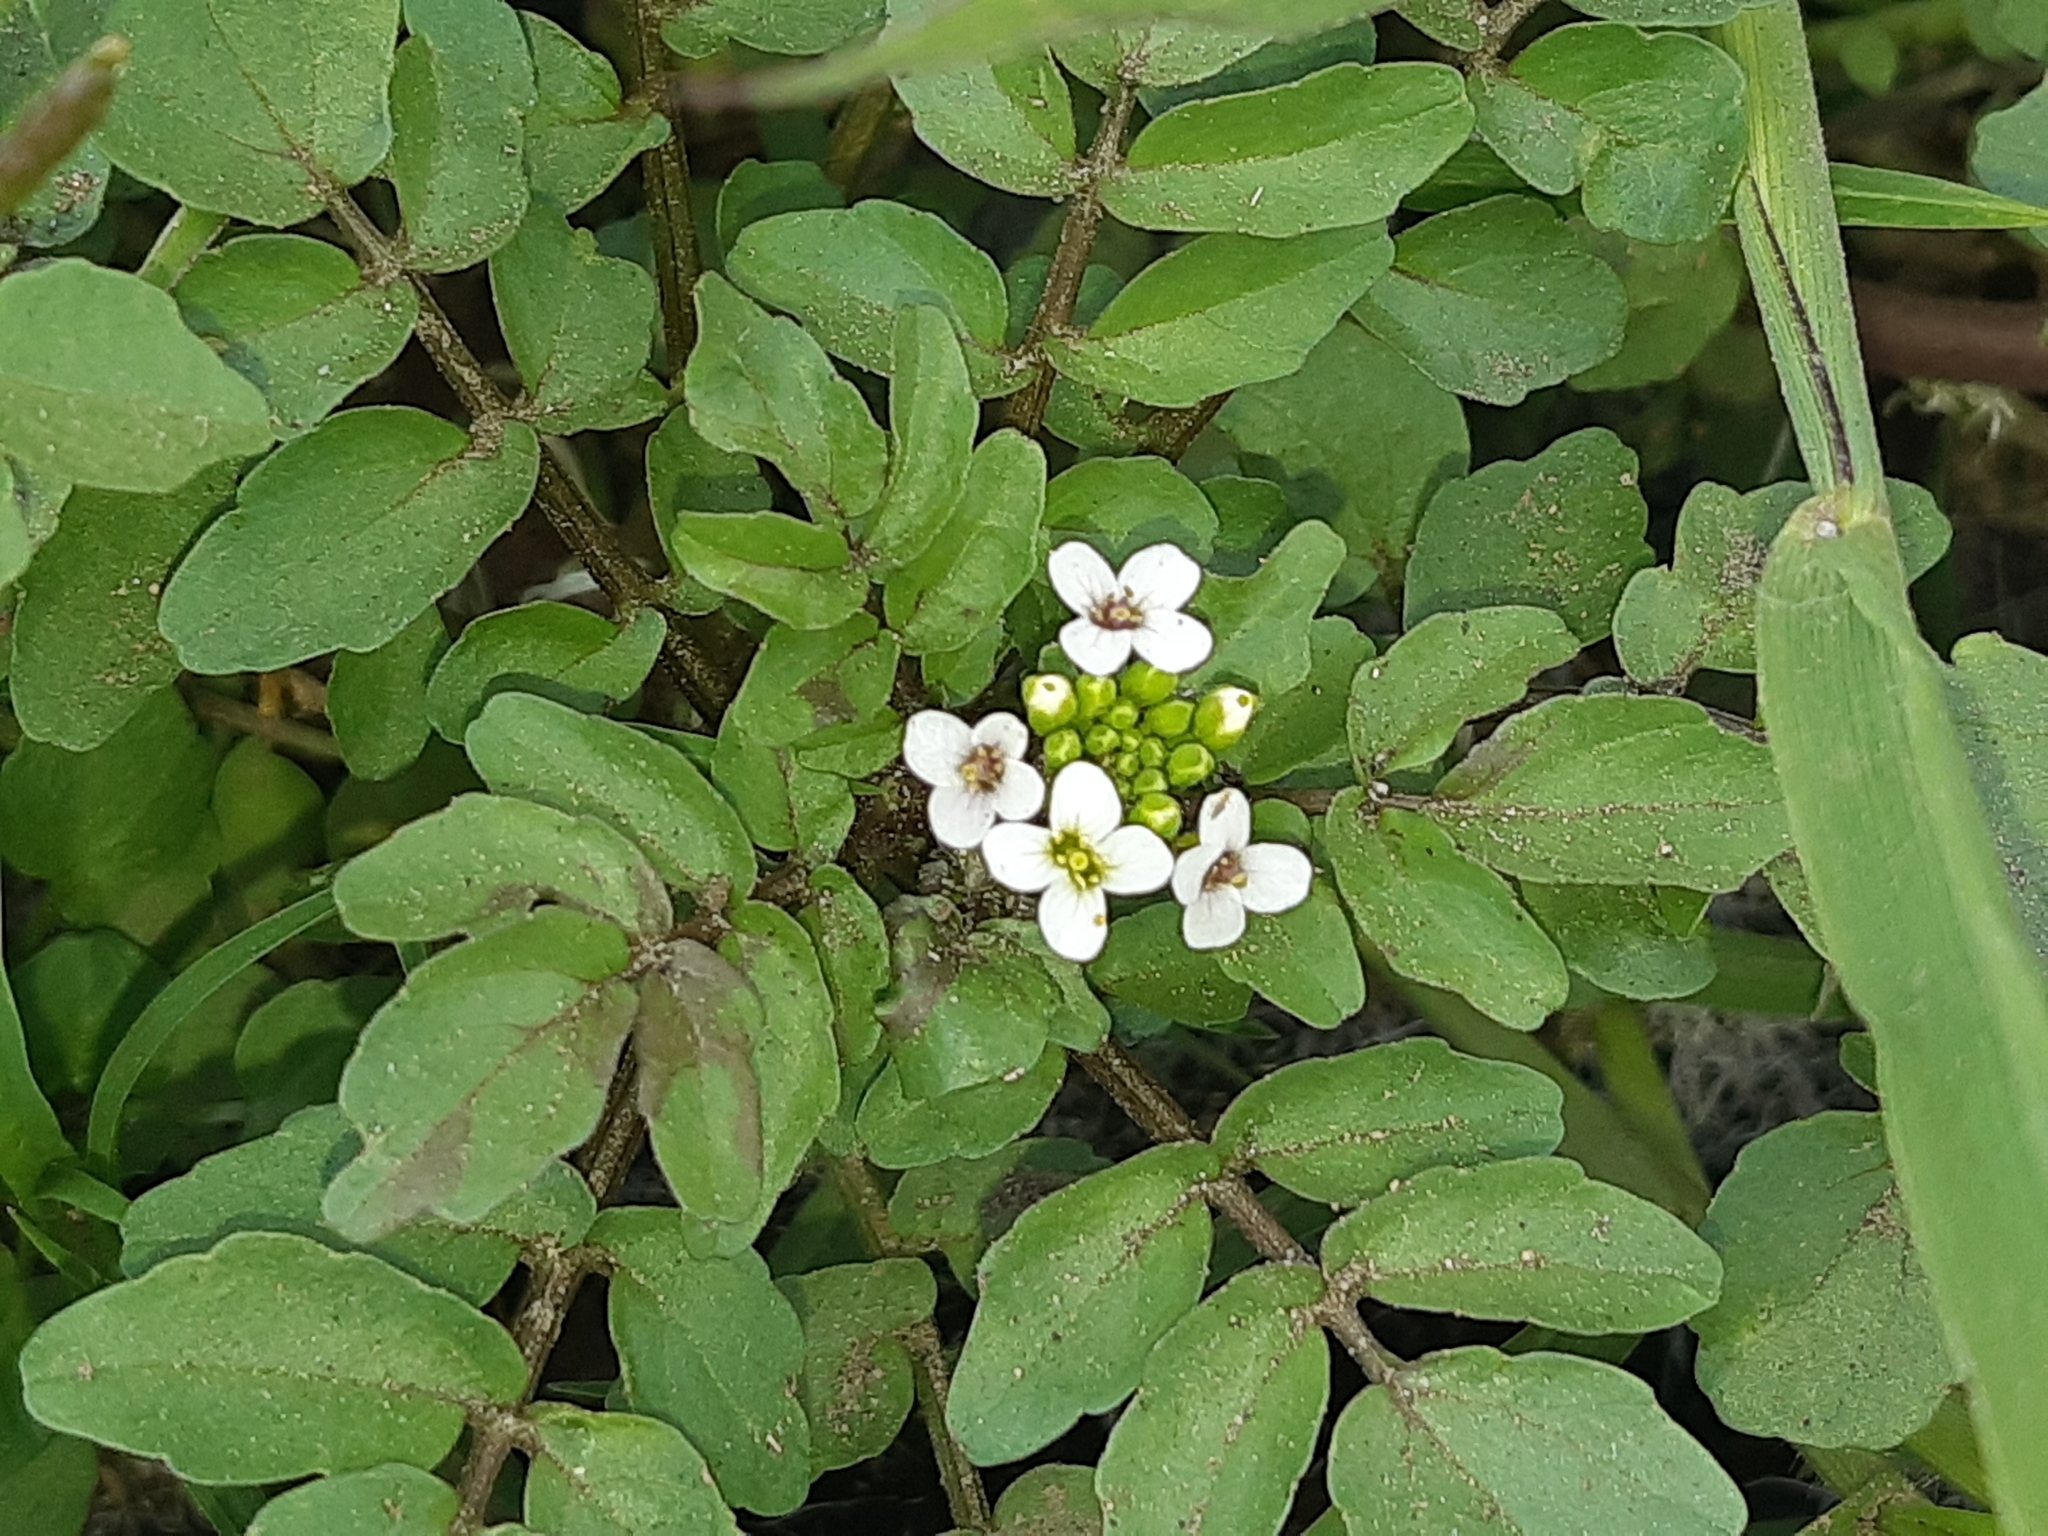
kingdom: Plantae
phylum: Tracheophyta
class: Magnoliopsida
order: Brassicales
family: Brassicaceae
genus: Nasturtium
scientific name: Nasturtium officinale
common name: Watercress
